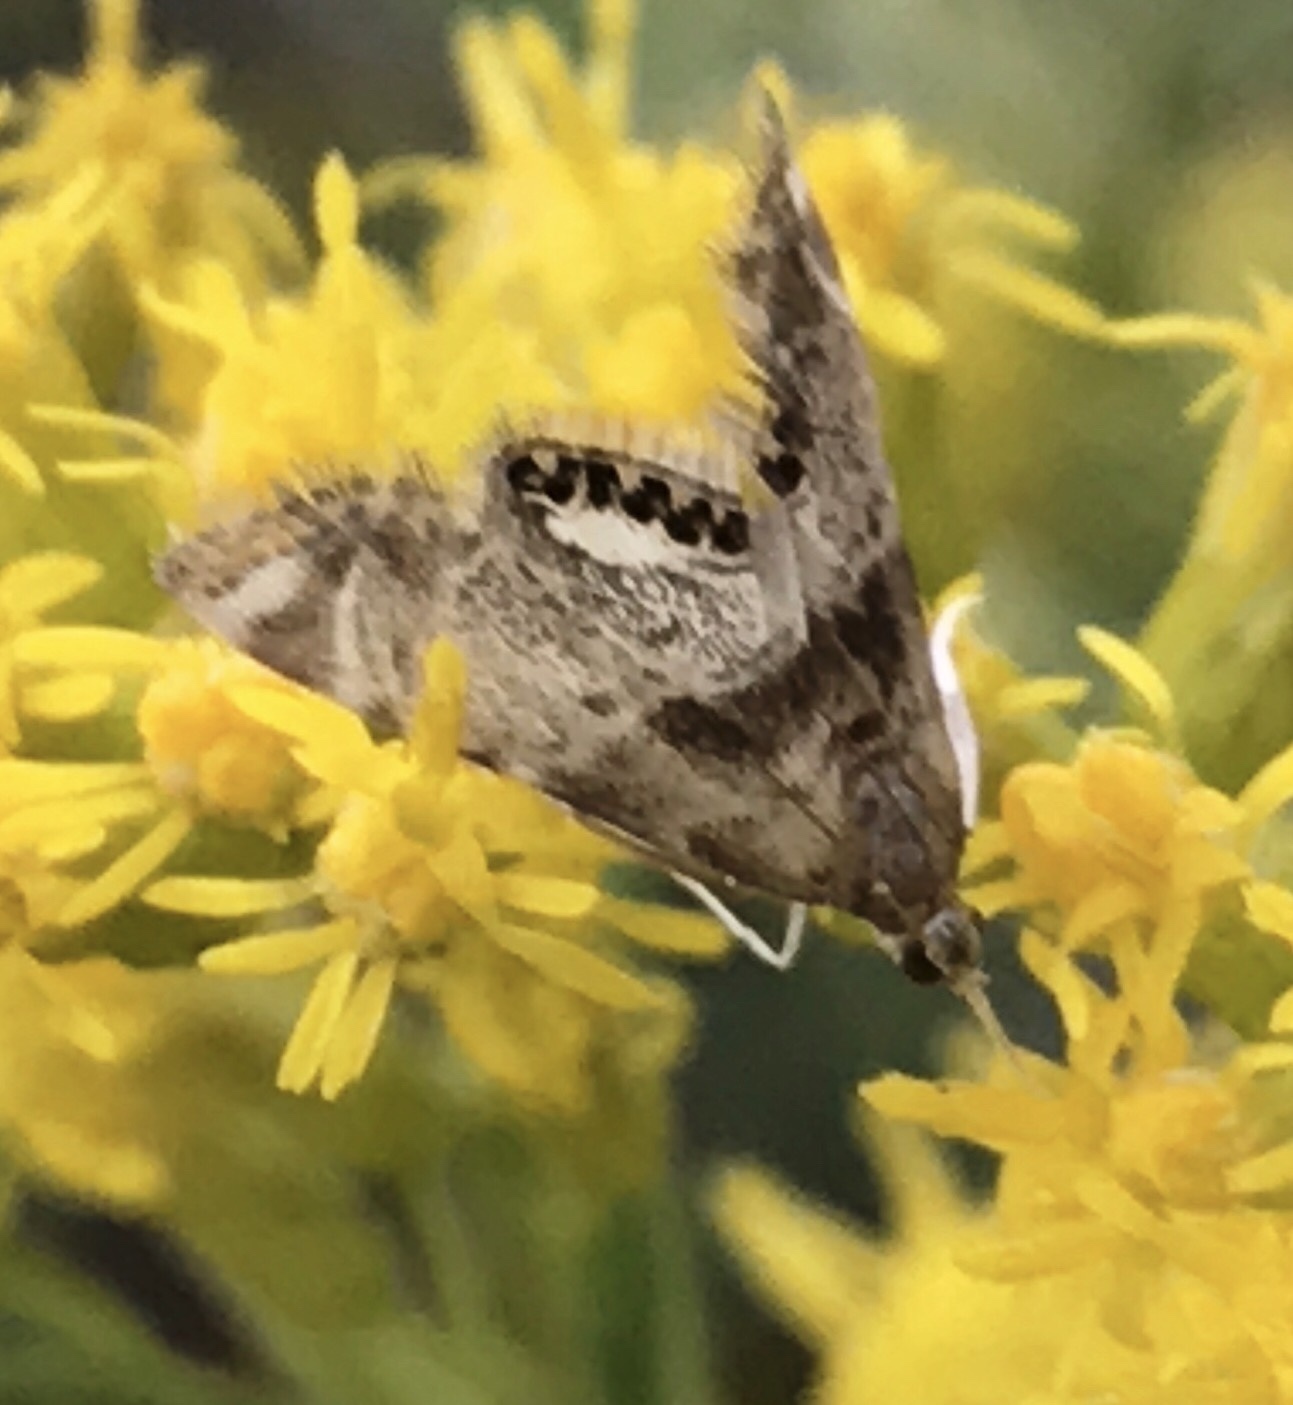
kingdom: Animalia
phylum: Arthropoda
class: Insecta
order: Lepidoptera
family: Crambidae
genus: Petrophila
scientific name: Petrophila fulicalis
